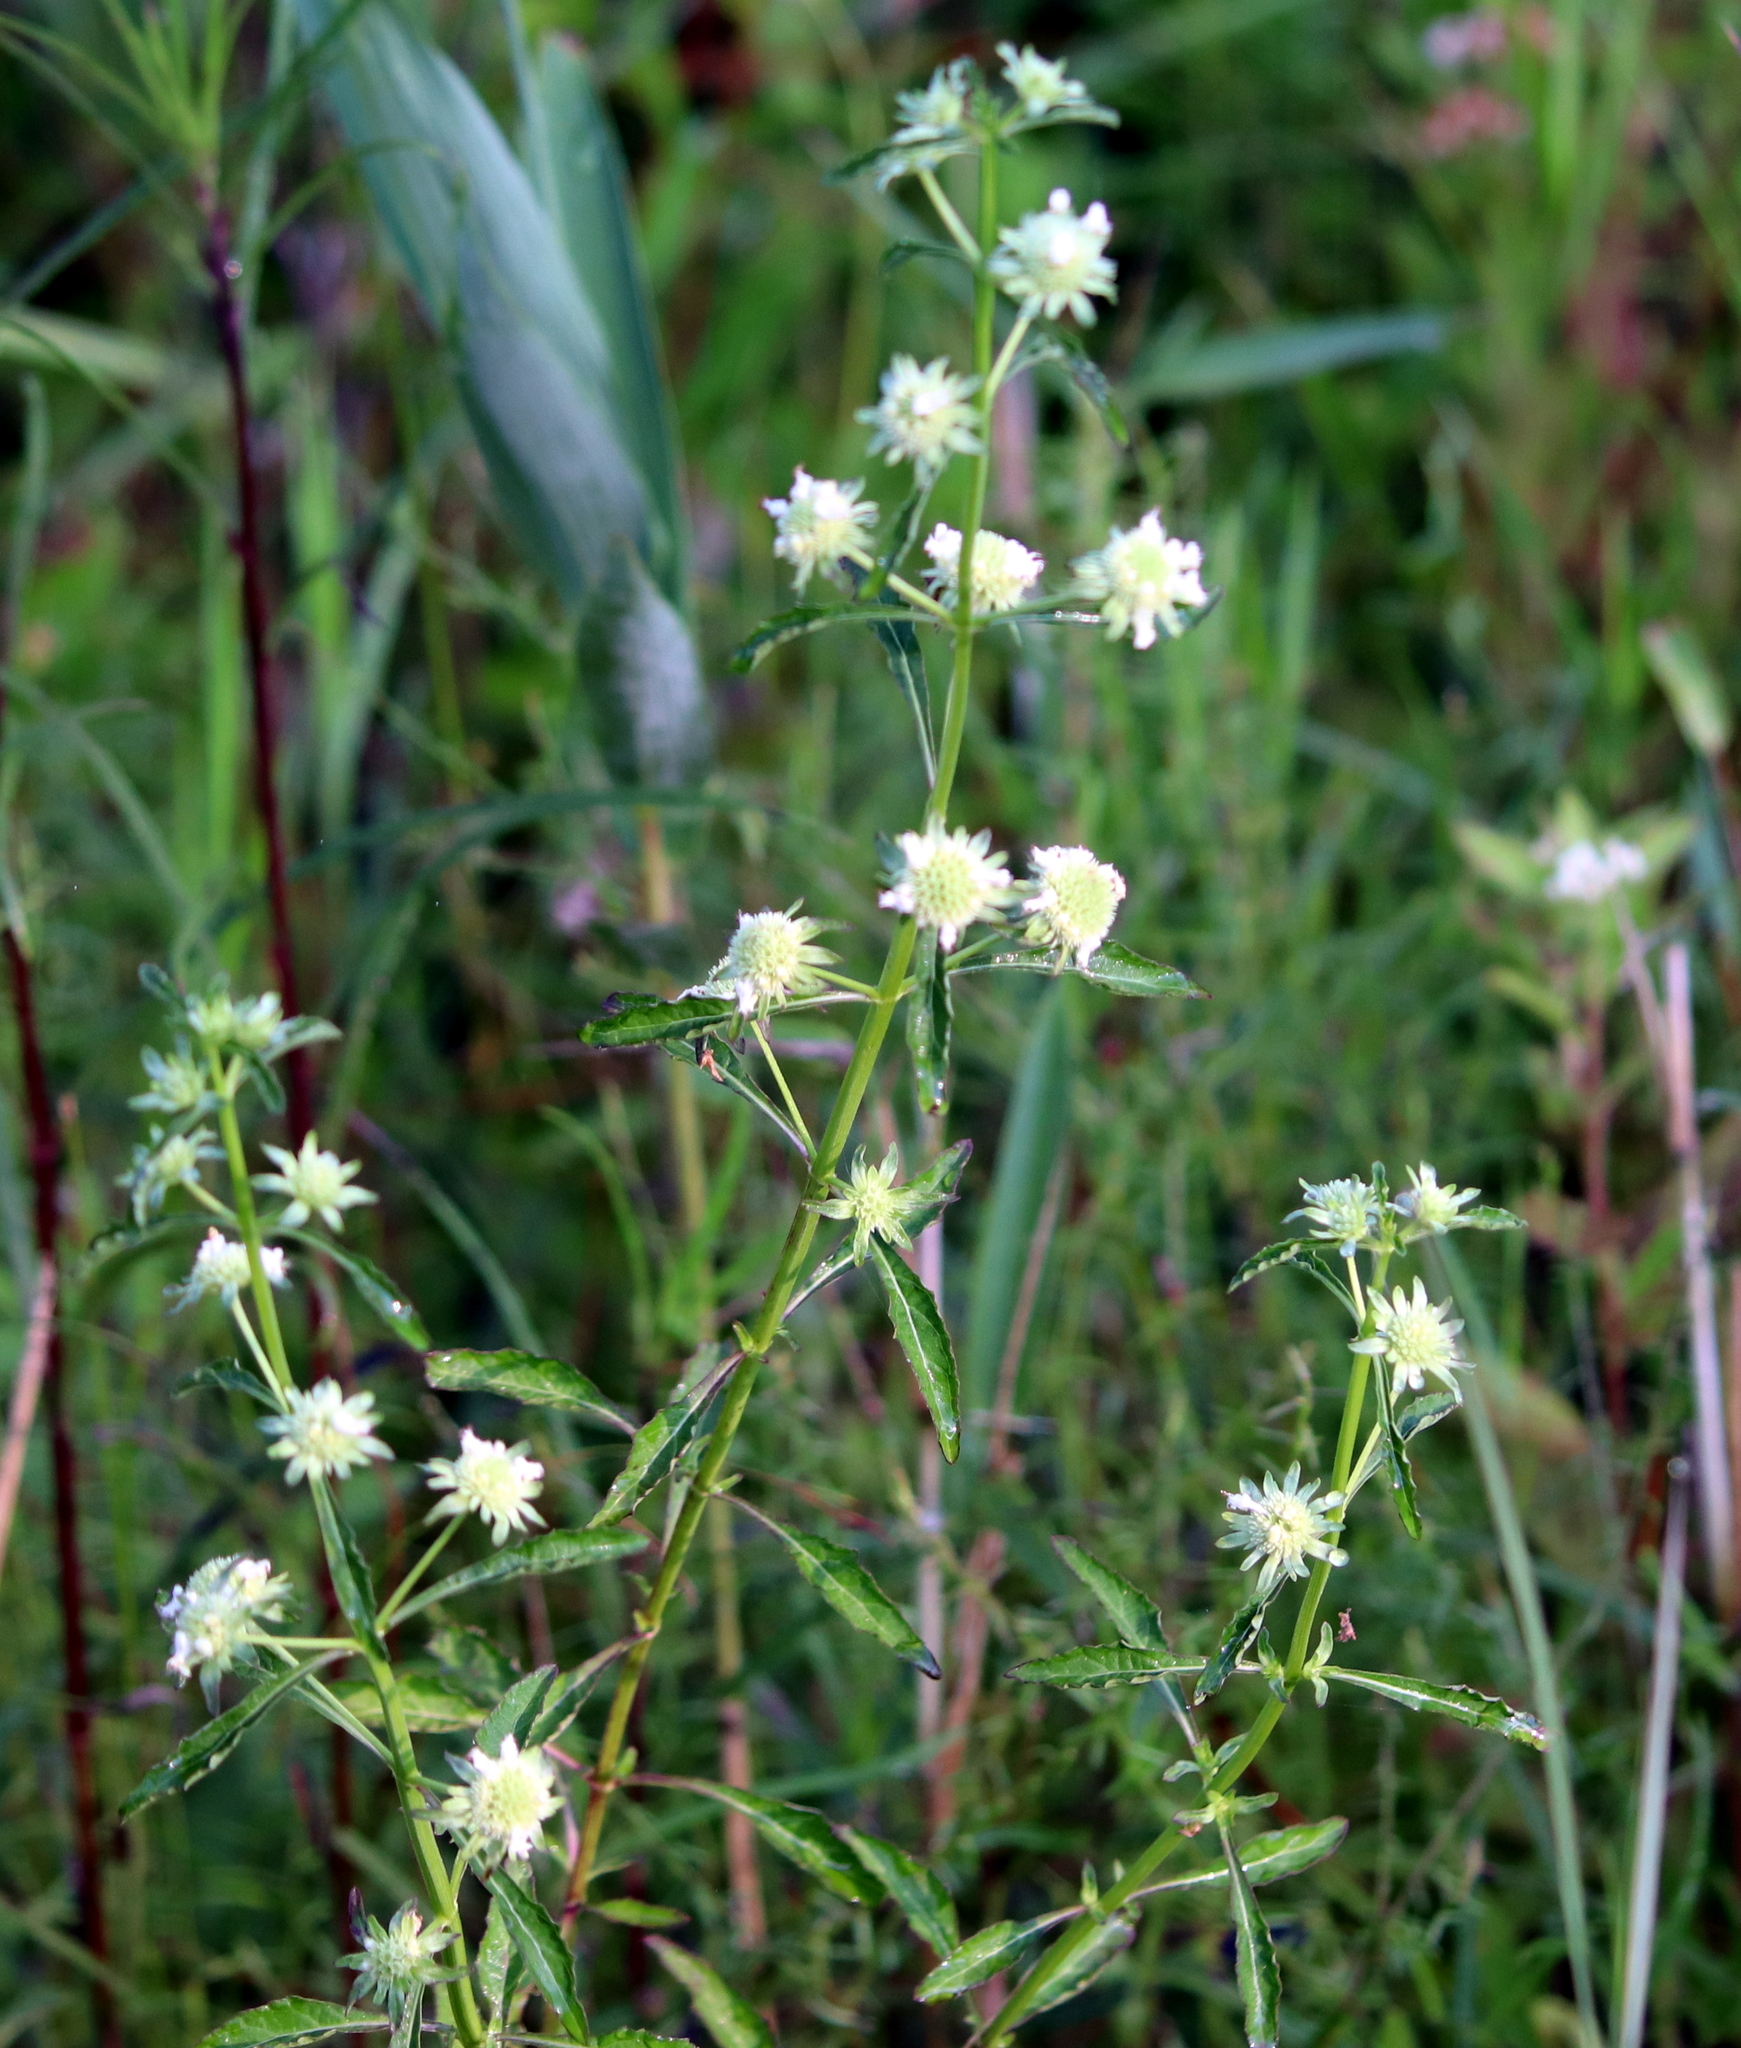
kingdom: Plantae
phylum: Tracheophyta
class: Magnoliopsida
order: Lamiales
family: Lamiaceae
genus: Hyptis
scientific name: Hyptis alata
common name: Cluster bush-mint
